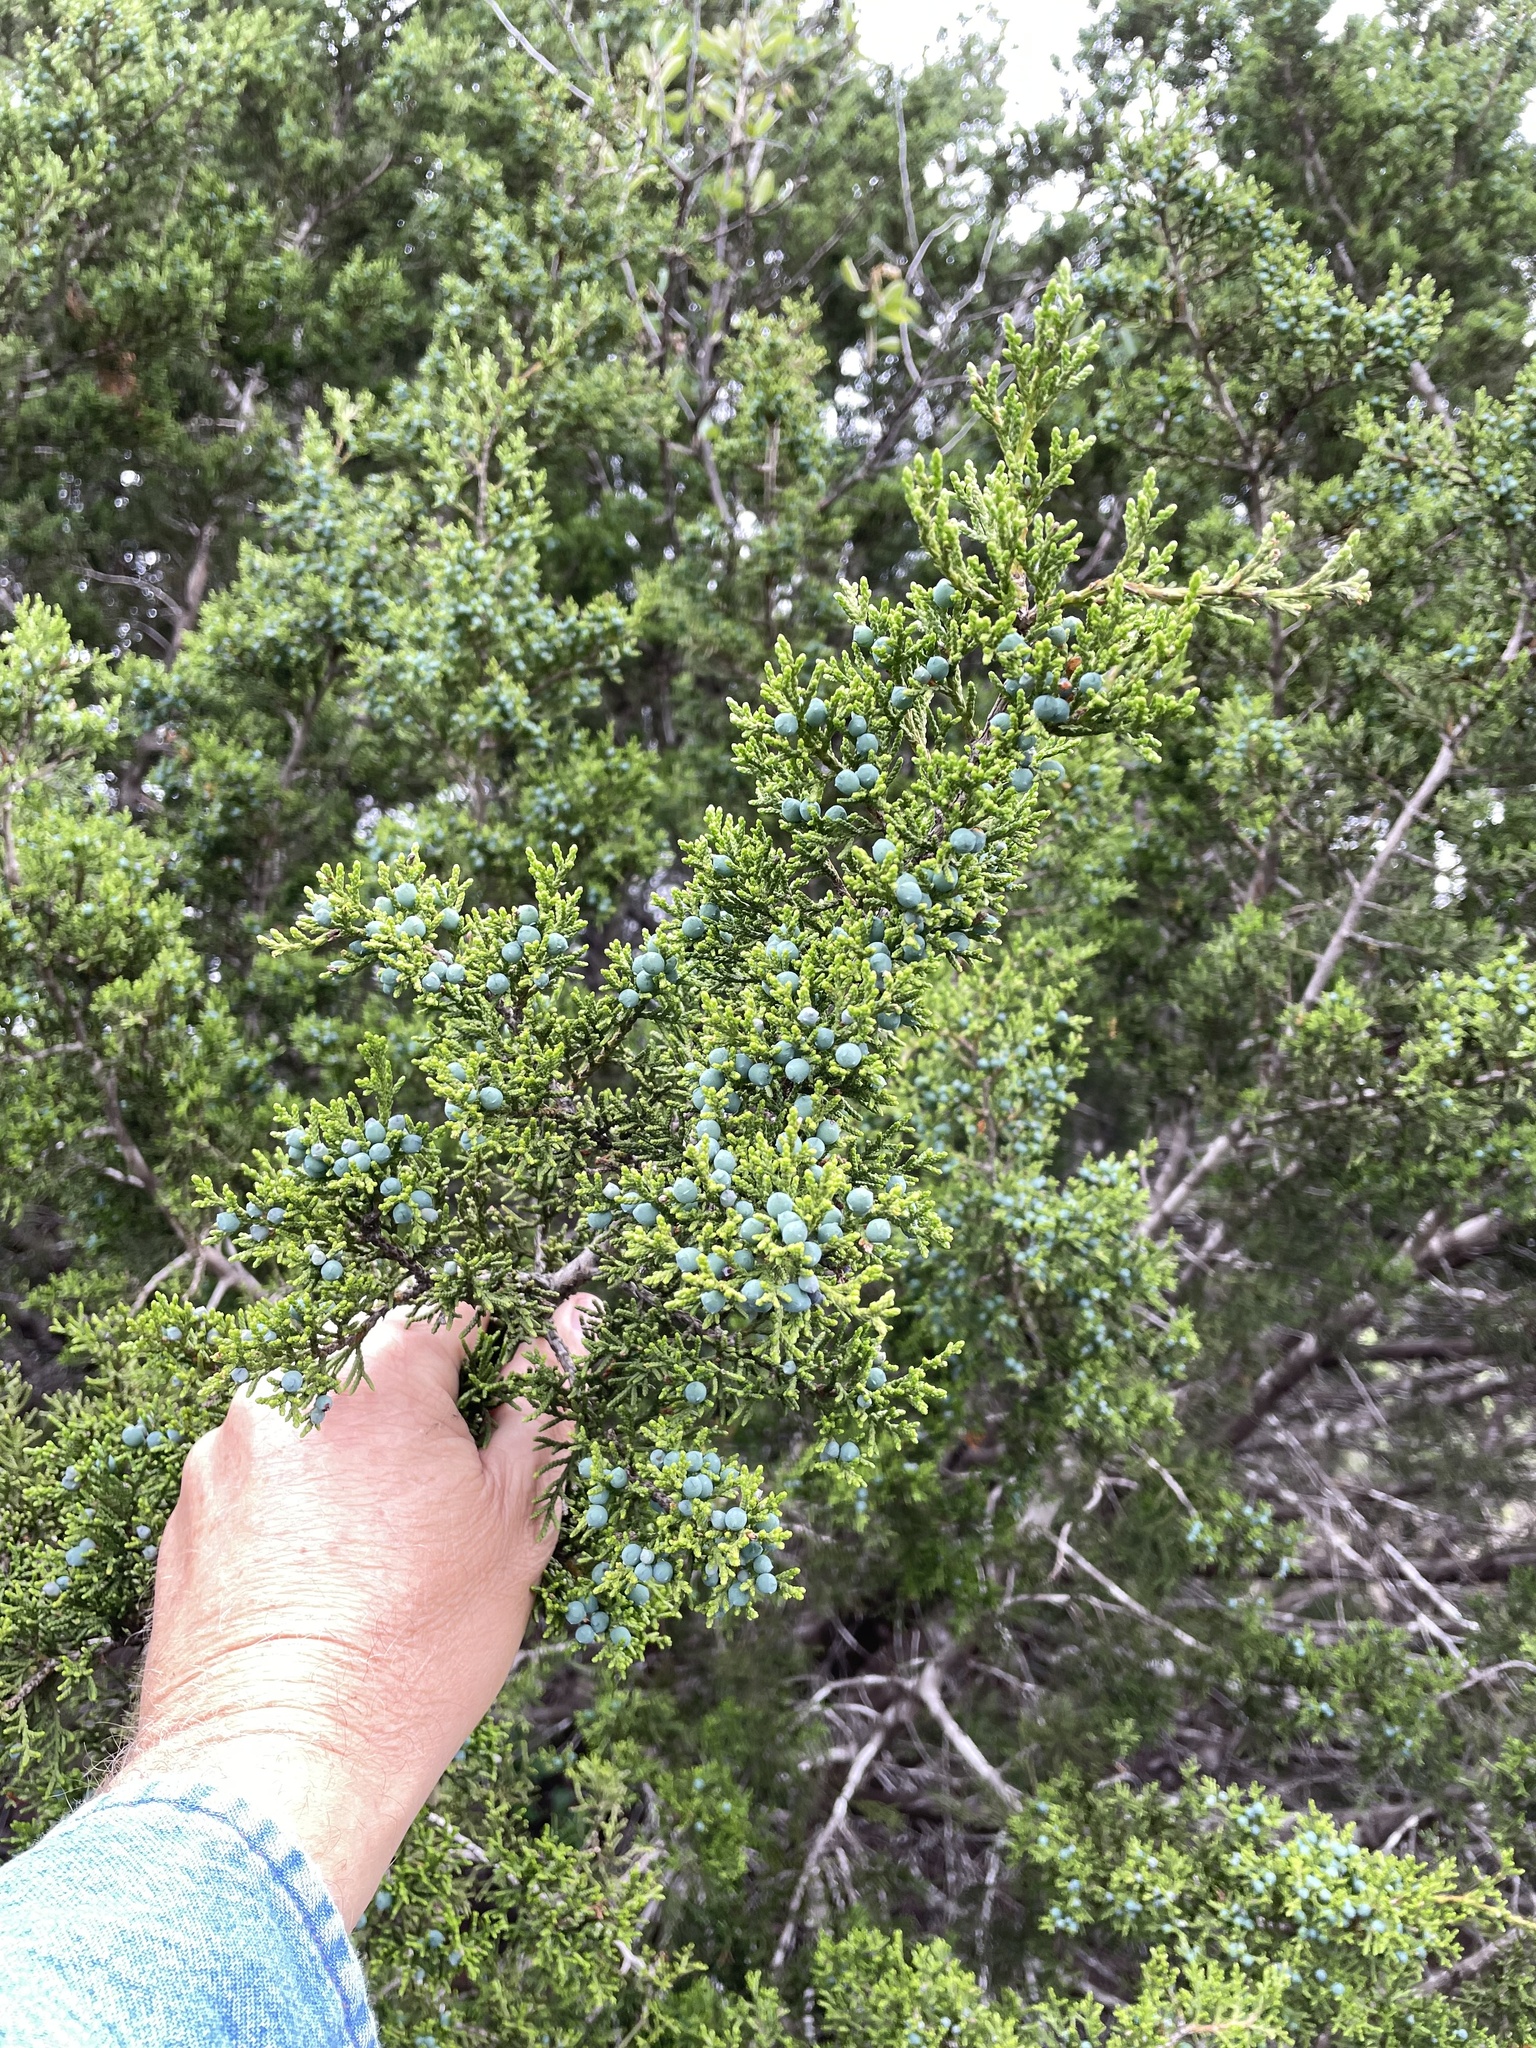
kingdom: Plantae
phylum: Tracheophyta
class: Pinopsida
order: Pinales
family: Cupressaceae
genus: Juniperus
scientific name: Juniperus ashei
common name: Mexican juniper
